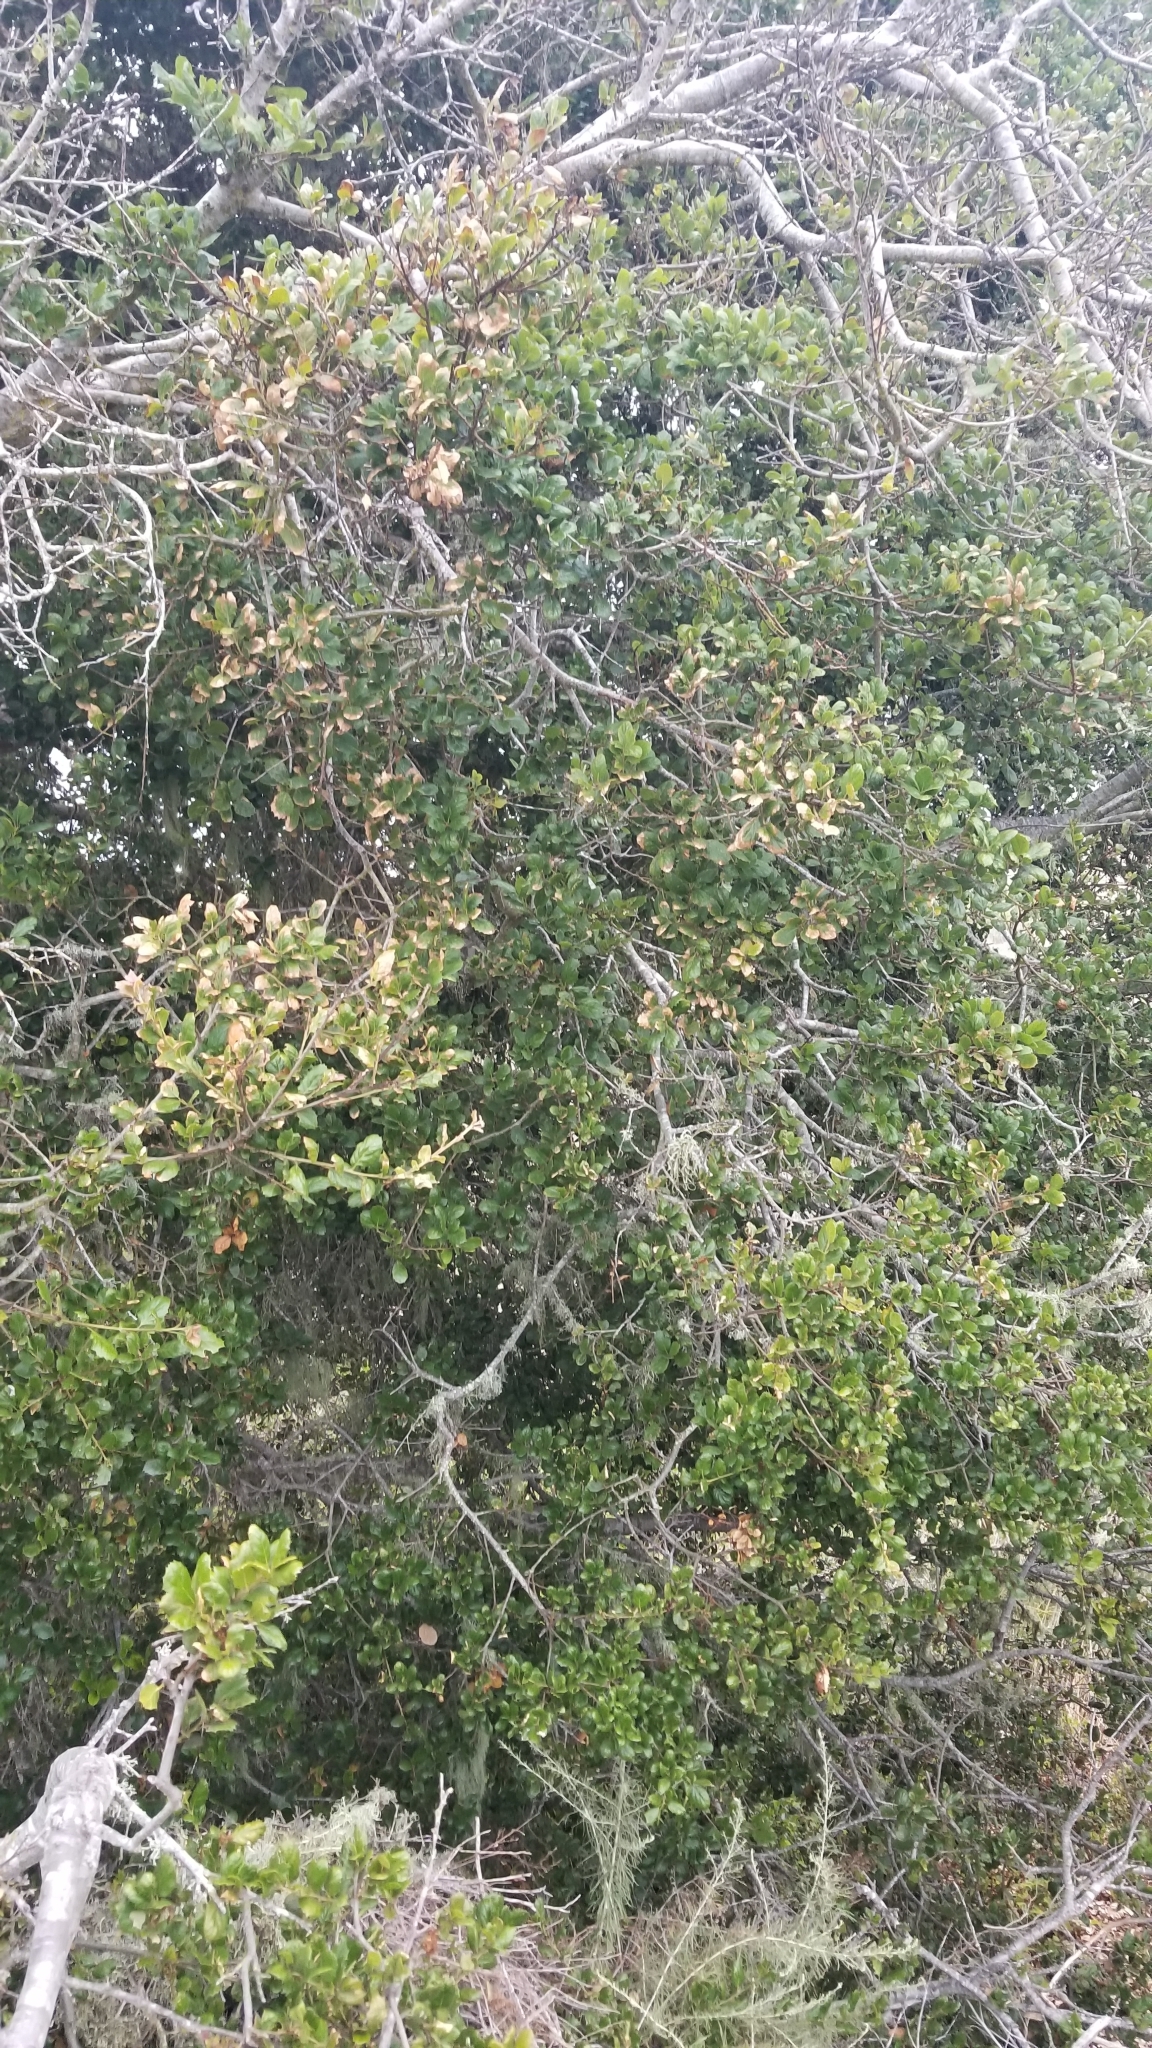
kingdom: Plantae
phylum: Tracheophyta
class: Magnoliopsida
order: Fagales
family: Fagaceae
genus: Quercus
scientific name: Quercus agrifolia
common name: California live oak
